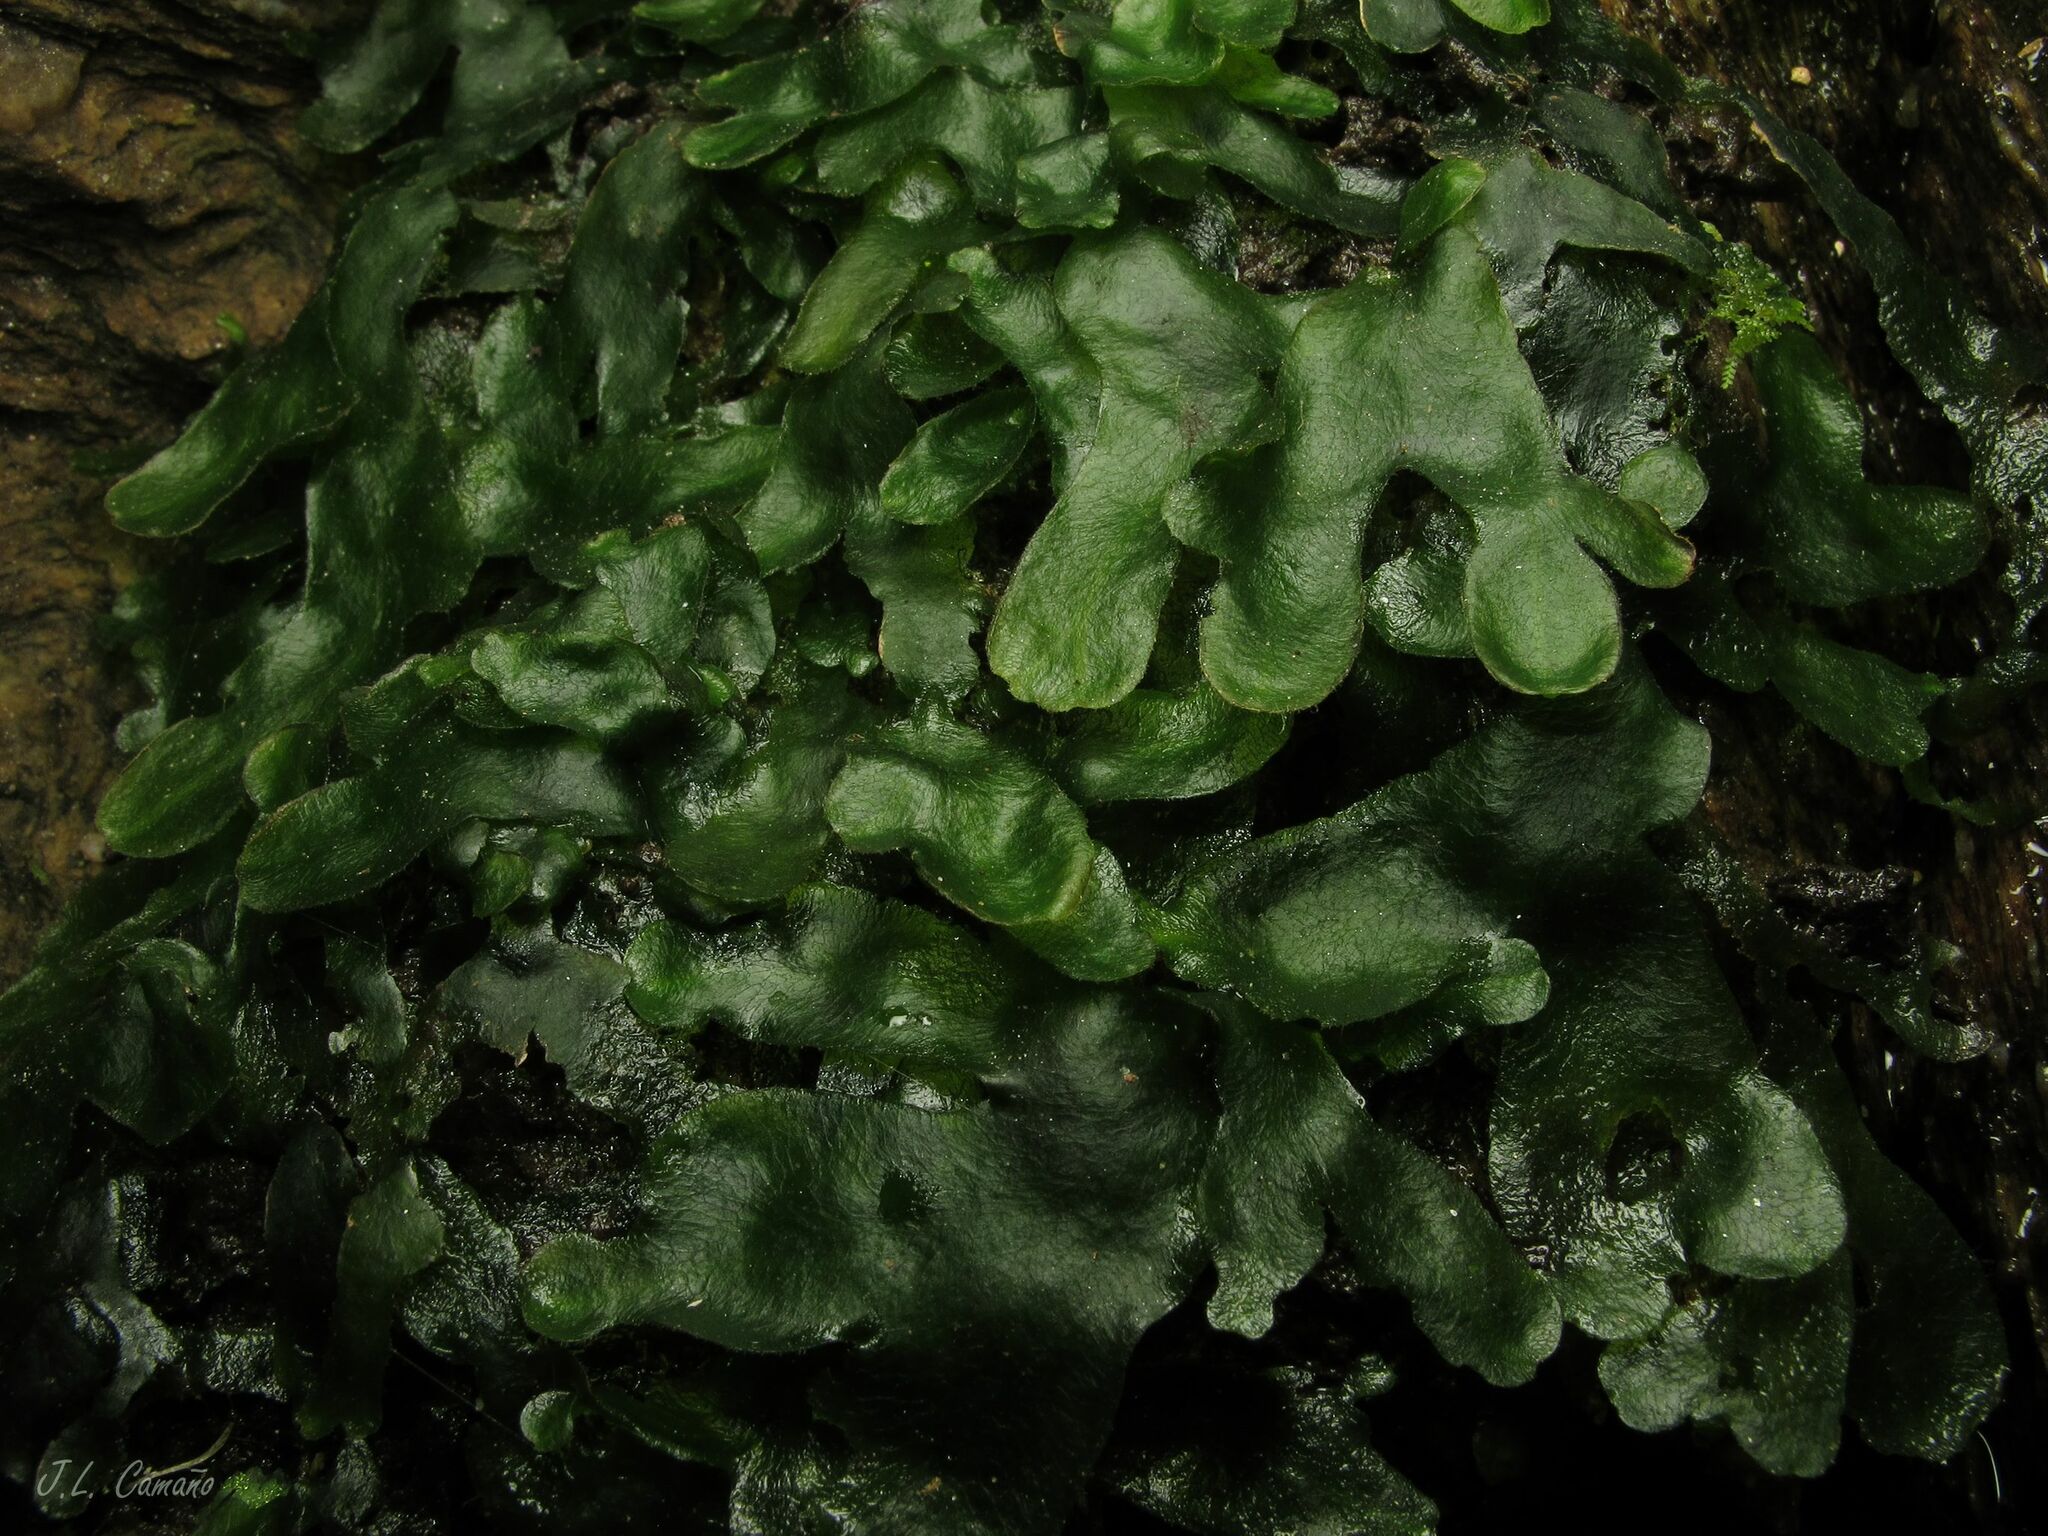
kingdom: Plantae
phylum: Marchantiophyta
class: Marchantiopsida
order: Marchantiales
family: Dumortieraceae
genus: Dumortiera
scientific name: Dumortiera hirsuta
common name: Dumortier's liverwort
